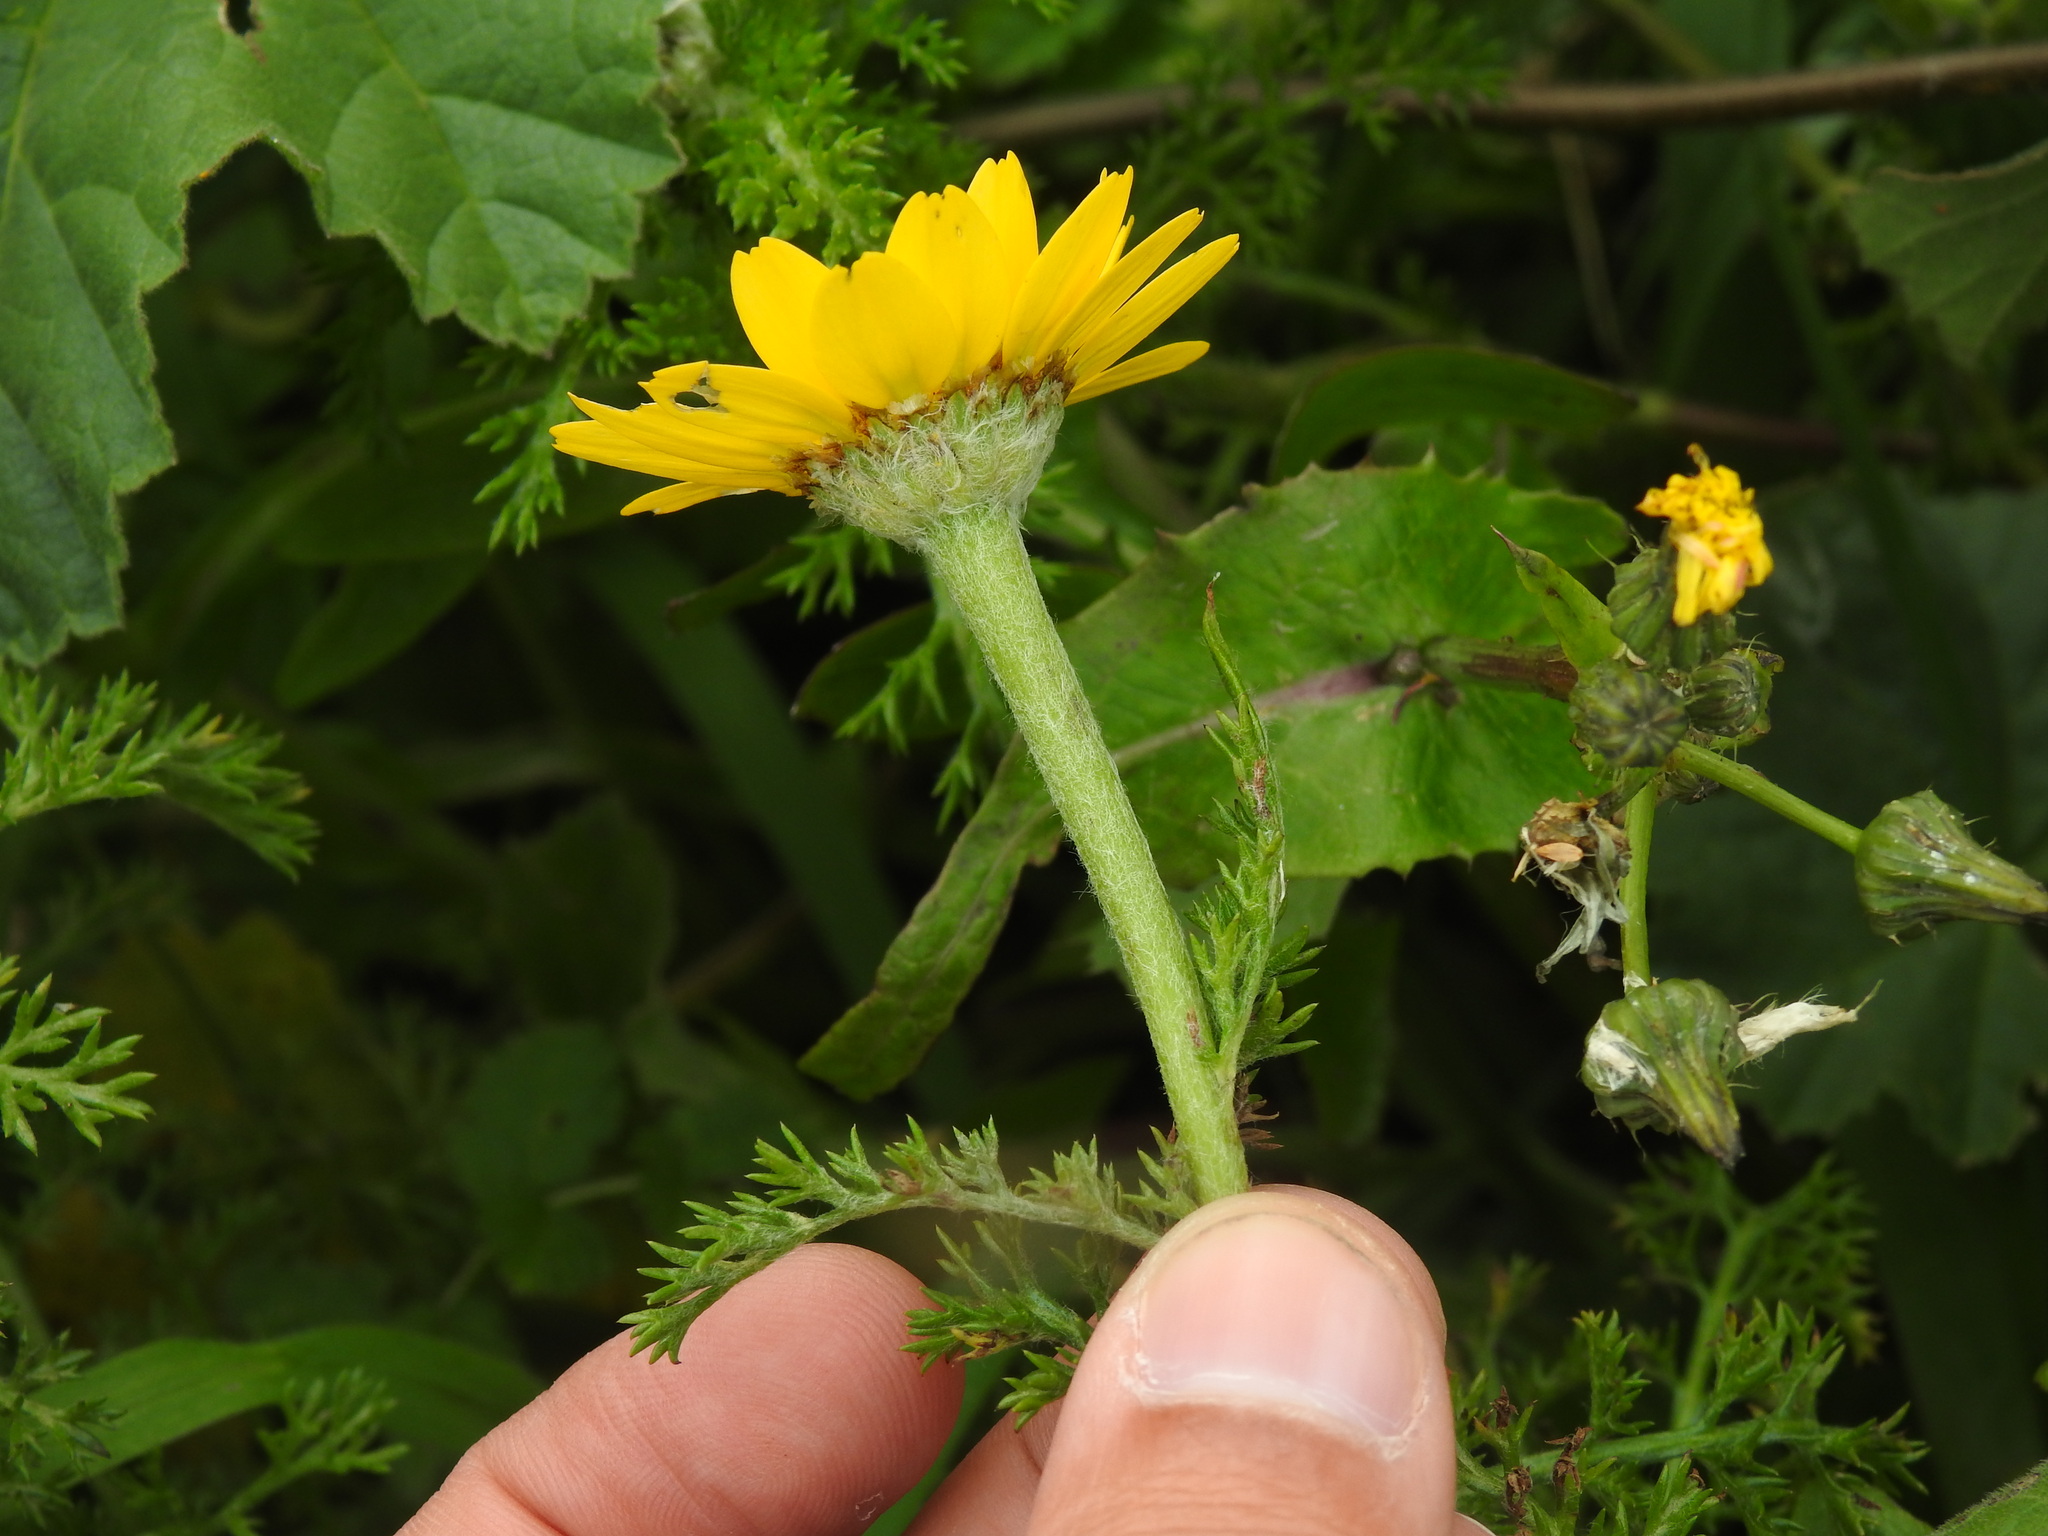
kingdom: Plantae
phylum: Tracheophyta
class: Magnoliopsida
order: Asterales
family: Asteraceae
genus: Anacyclus
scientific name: Anacyclus radiatus
